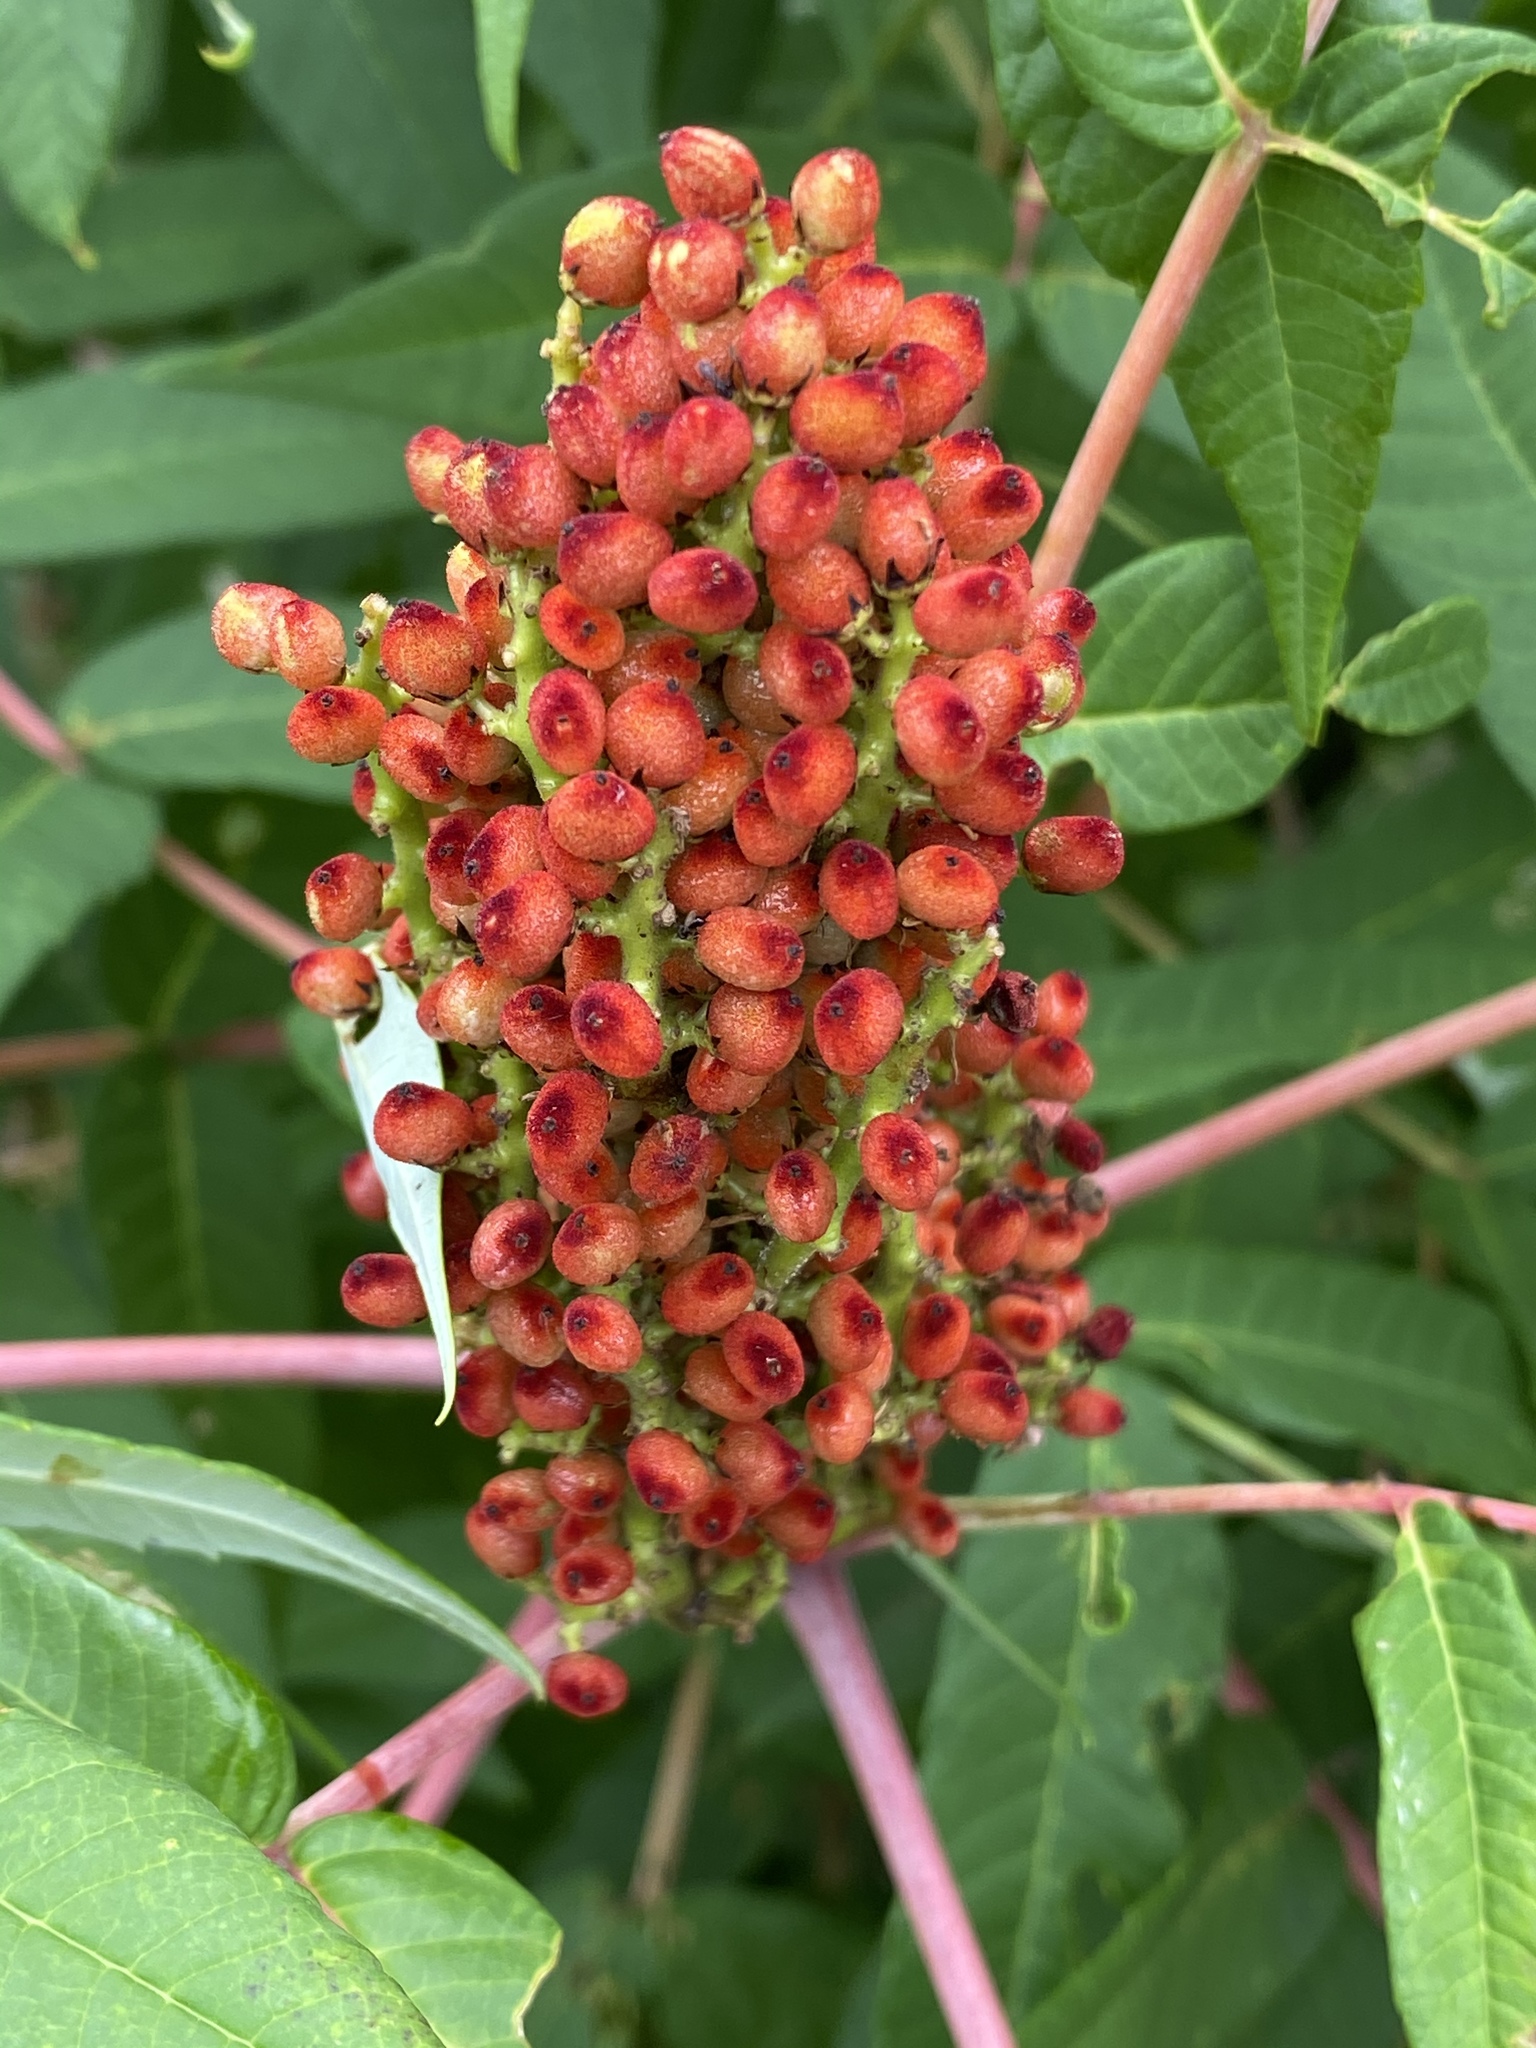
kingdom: Plantae
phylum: Tracheophyta
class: Magnoliopsida
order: Sapindales
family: Anacardiaceae
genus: Rhus
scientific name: Rhus glabra
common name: Scarlet sumac
